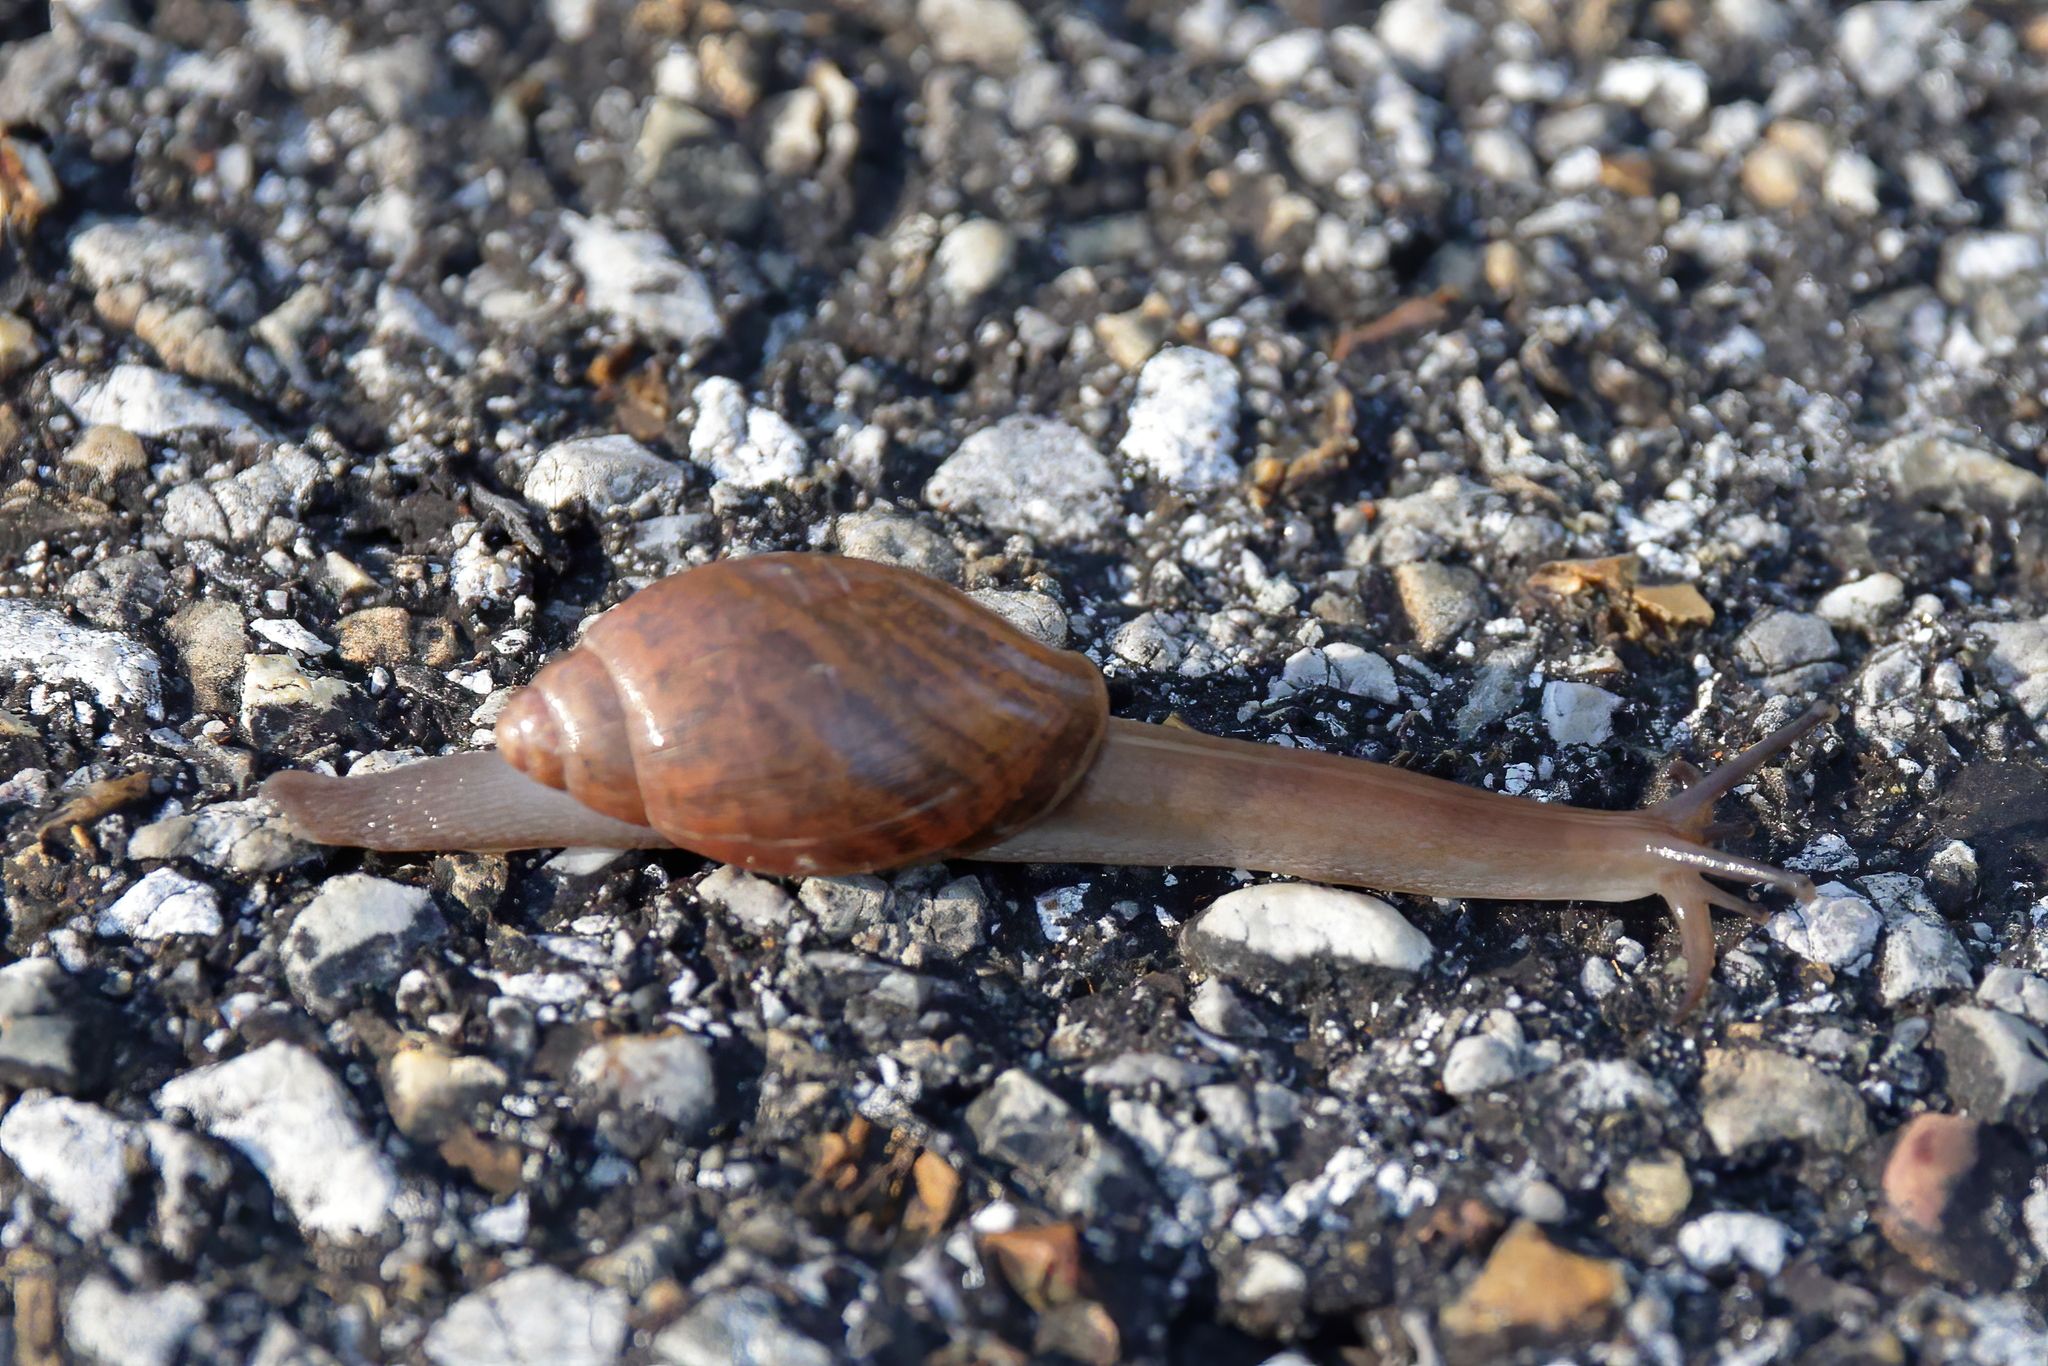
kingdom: Animalia
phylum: Mollusca
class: Gastropoda
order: Stylommatophora
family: Spiraxidae
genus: Euglandina
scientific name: Euglandina rosea
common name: Rosy wolfsnail
